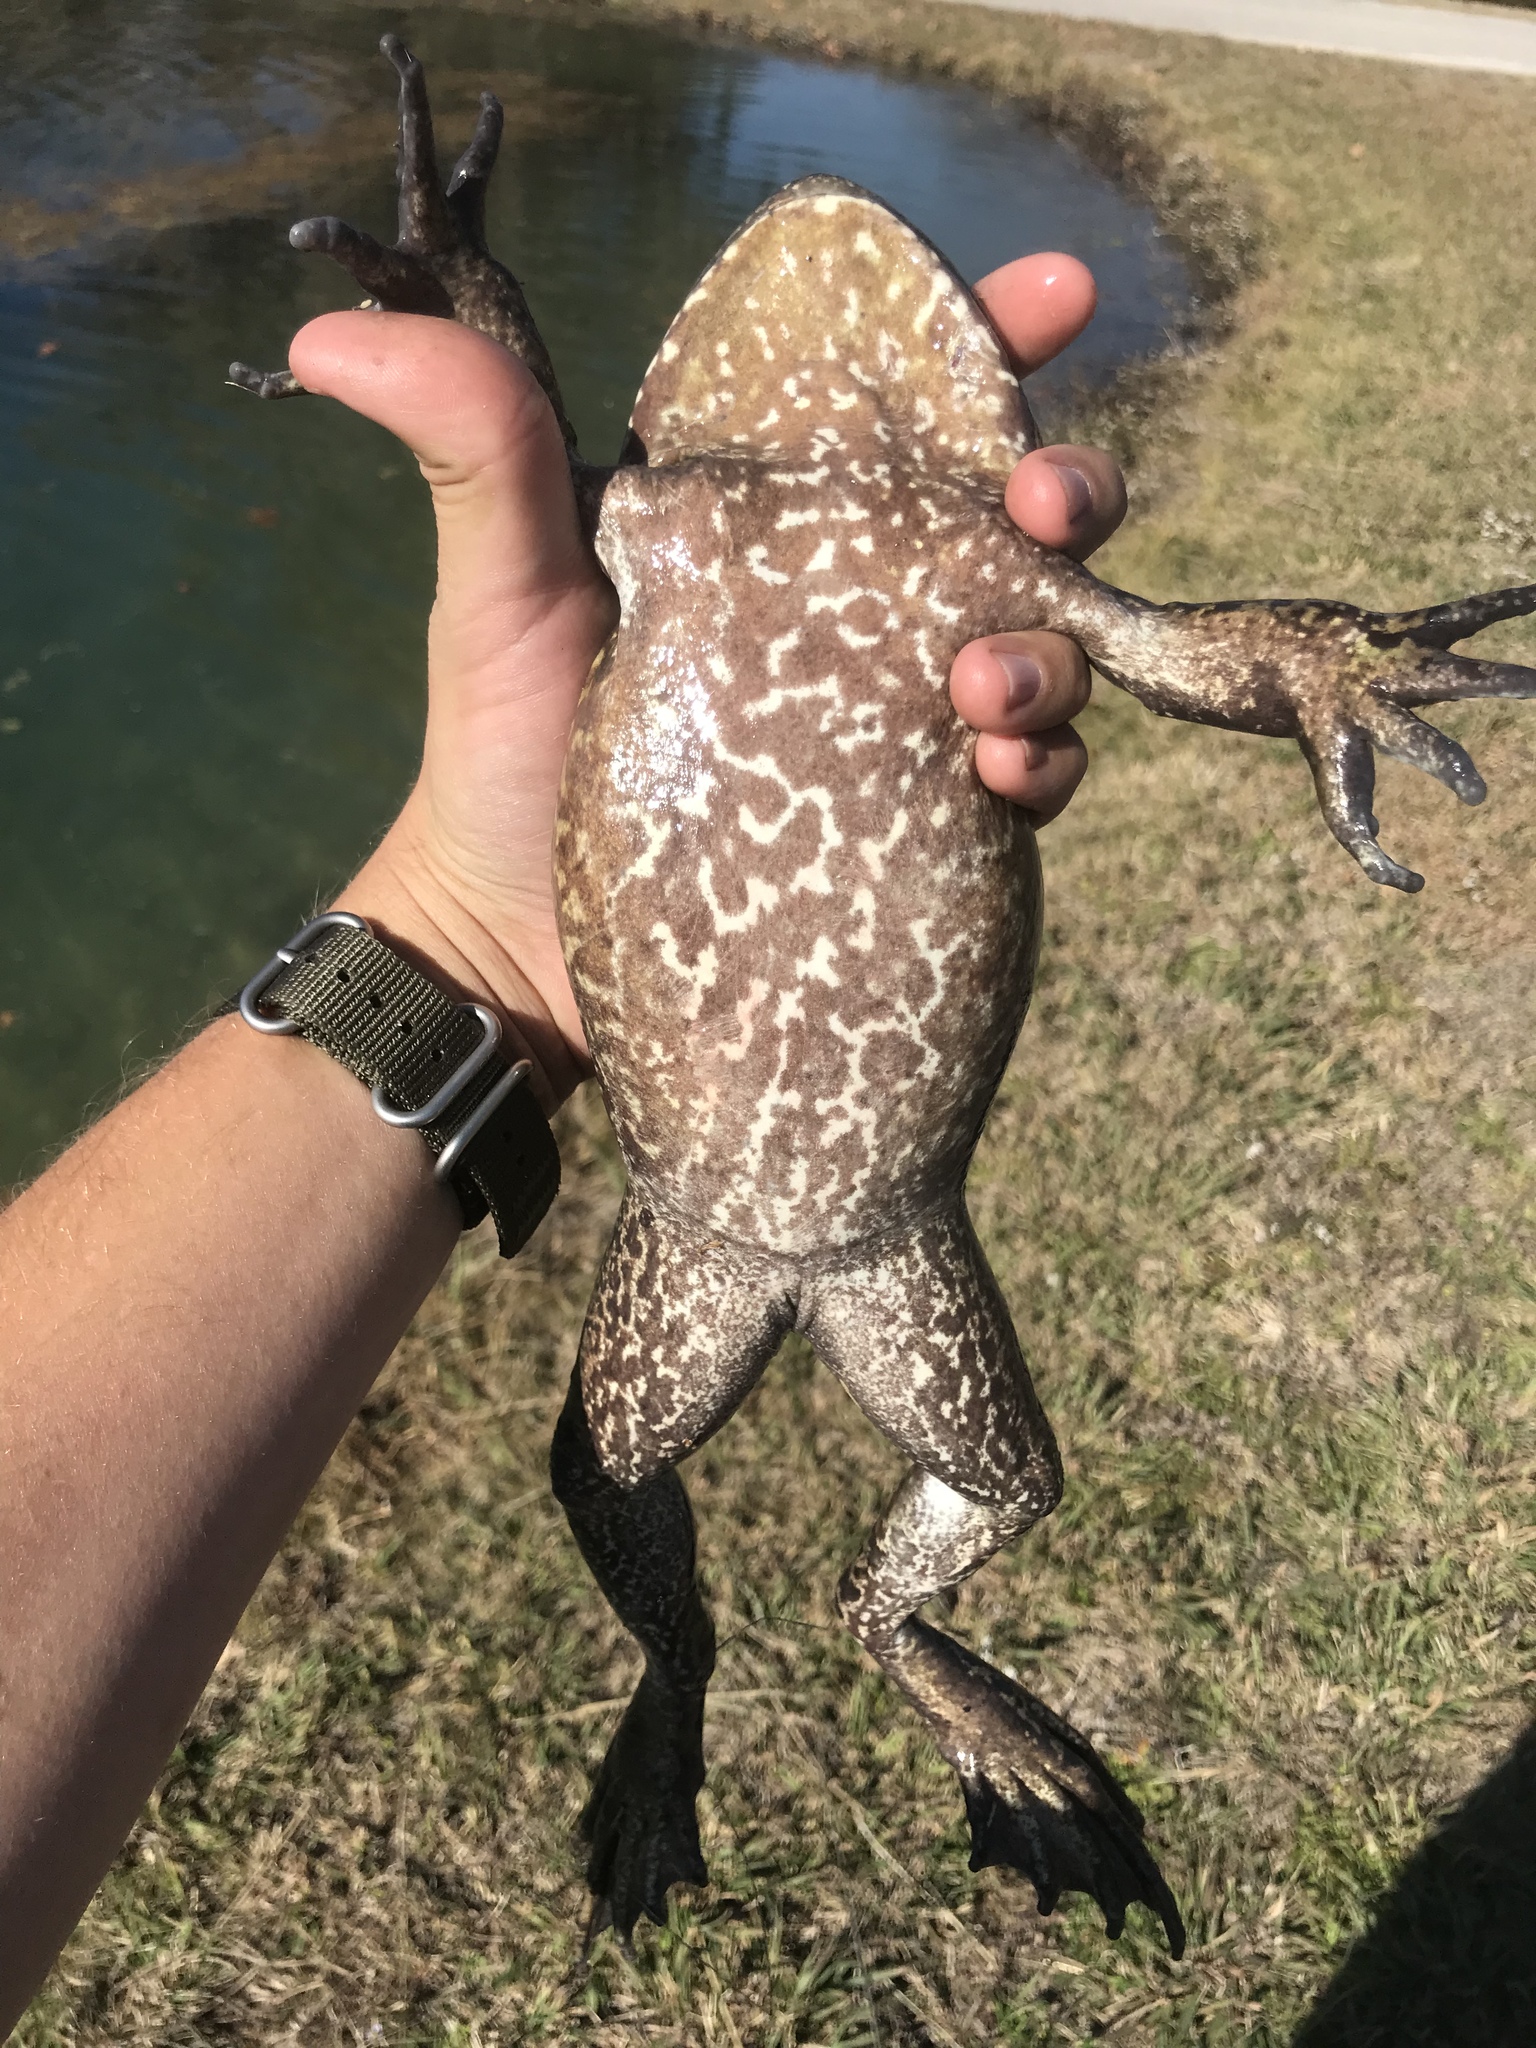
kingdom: Animalia
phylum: Chordata
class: Amphibia
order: Anura
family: Ranidae
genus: Lithobates
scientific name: Lithobates catesbeianus
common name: American bullfrog
